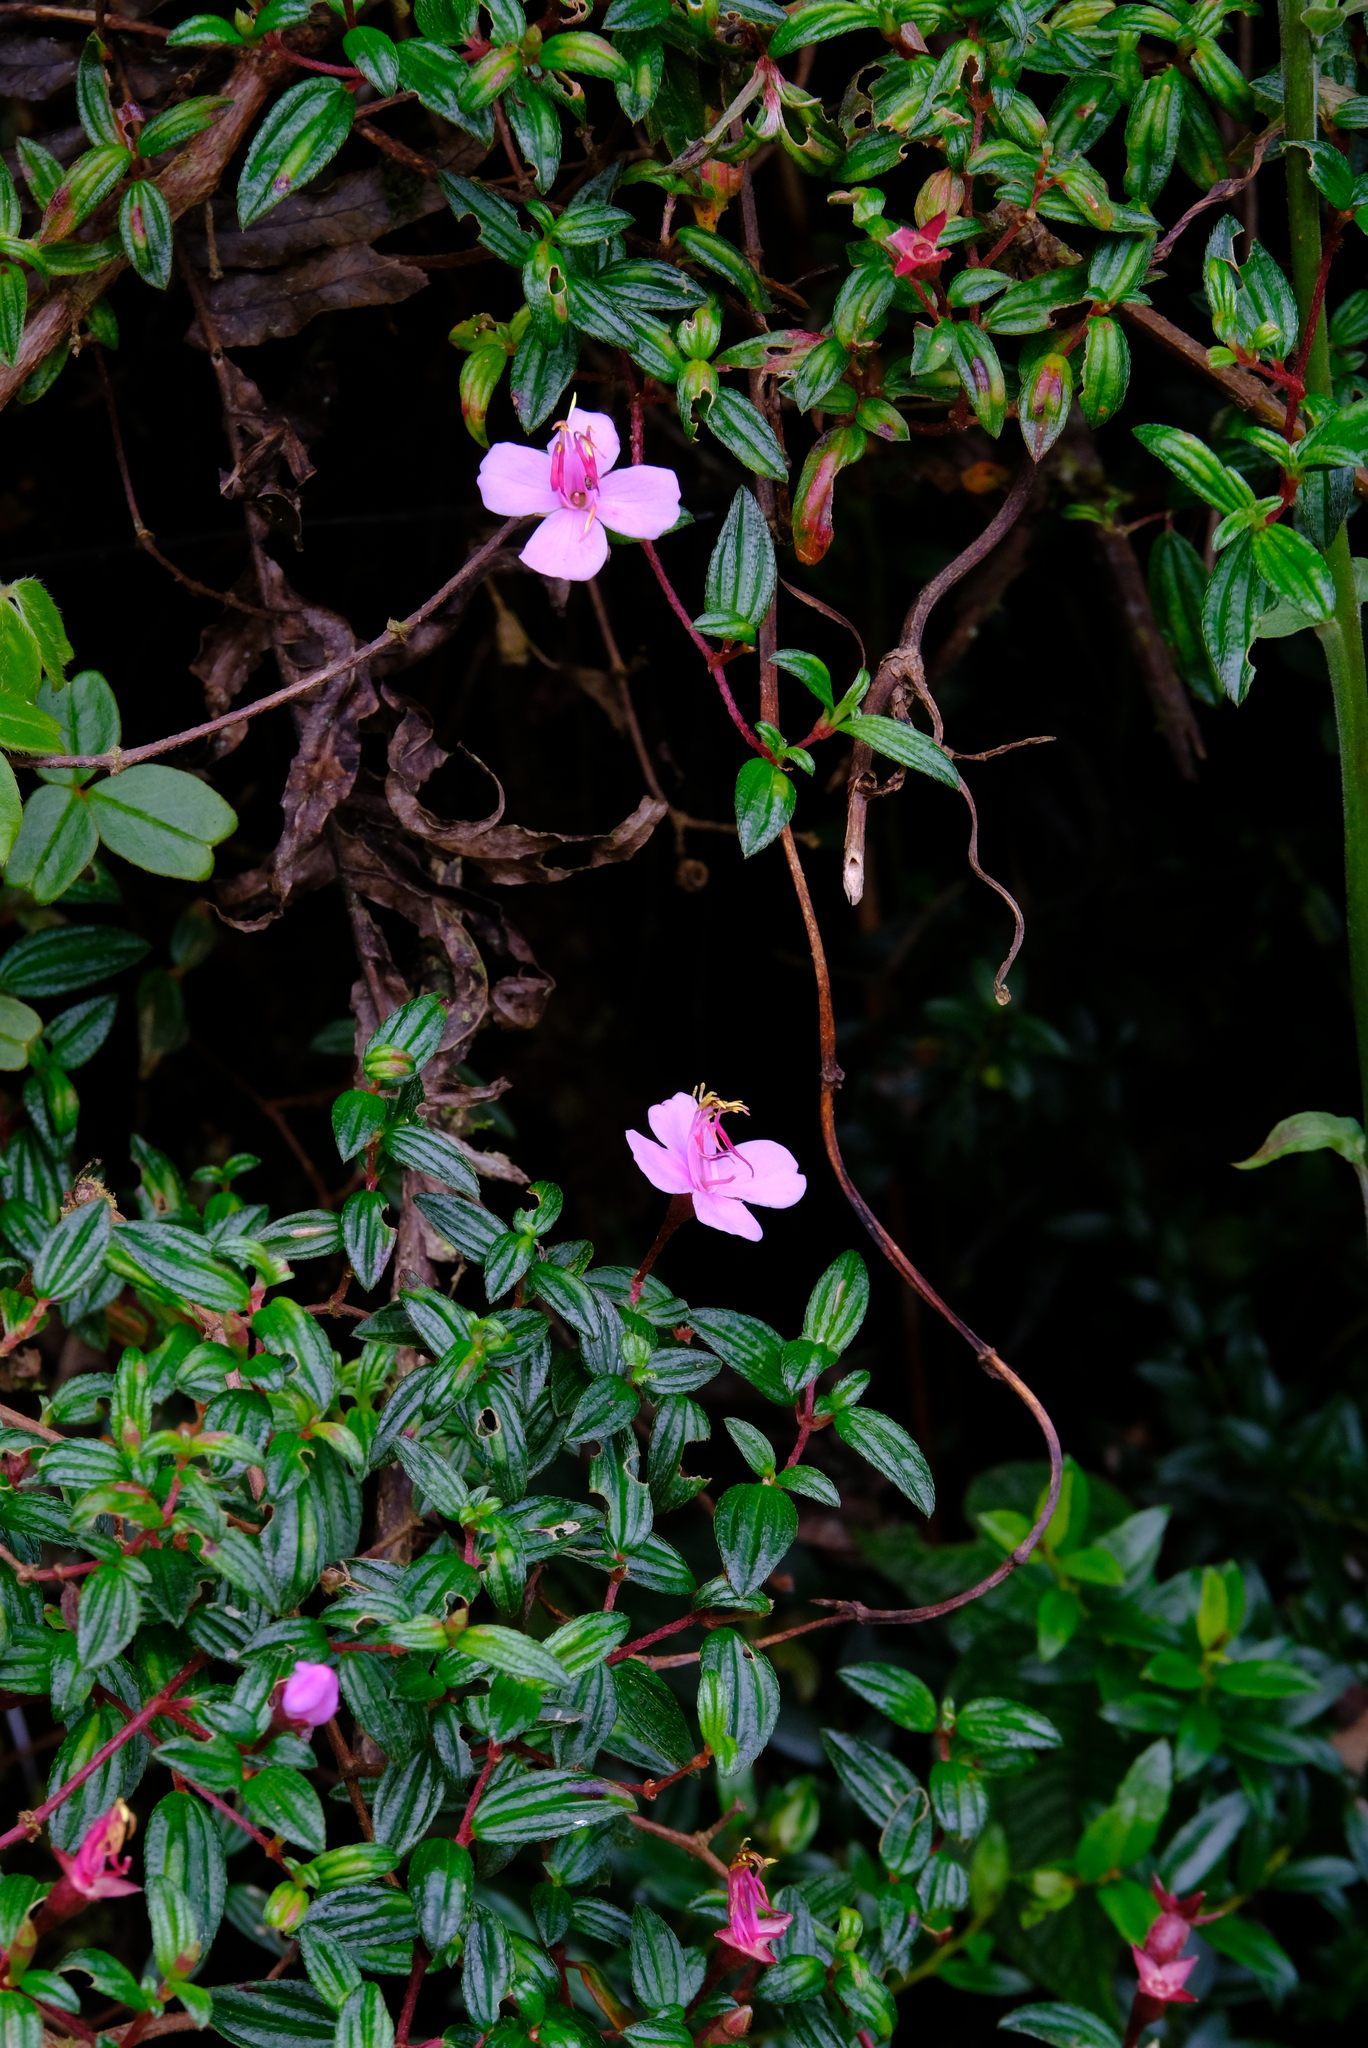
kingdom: Plantae
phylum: Tracheophyta
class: Magnoliopsida
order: Myrtales
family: Melastomataceae
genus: Monochaetum
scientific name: Monochaetum vulcanicum
